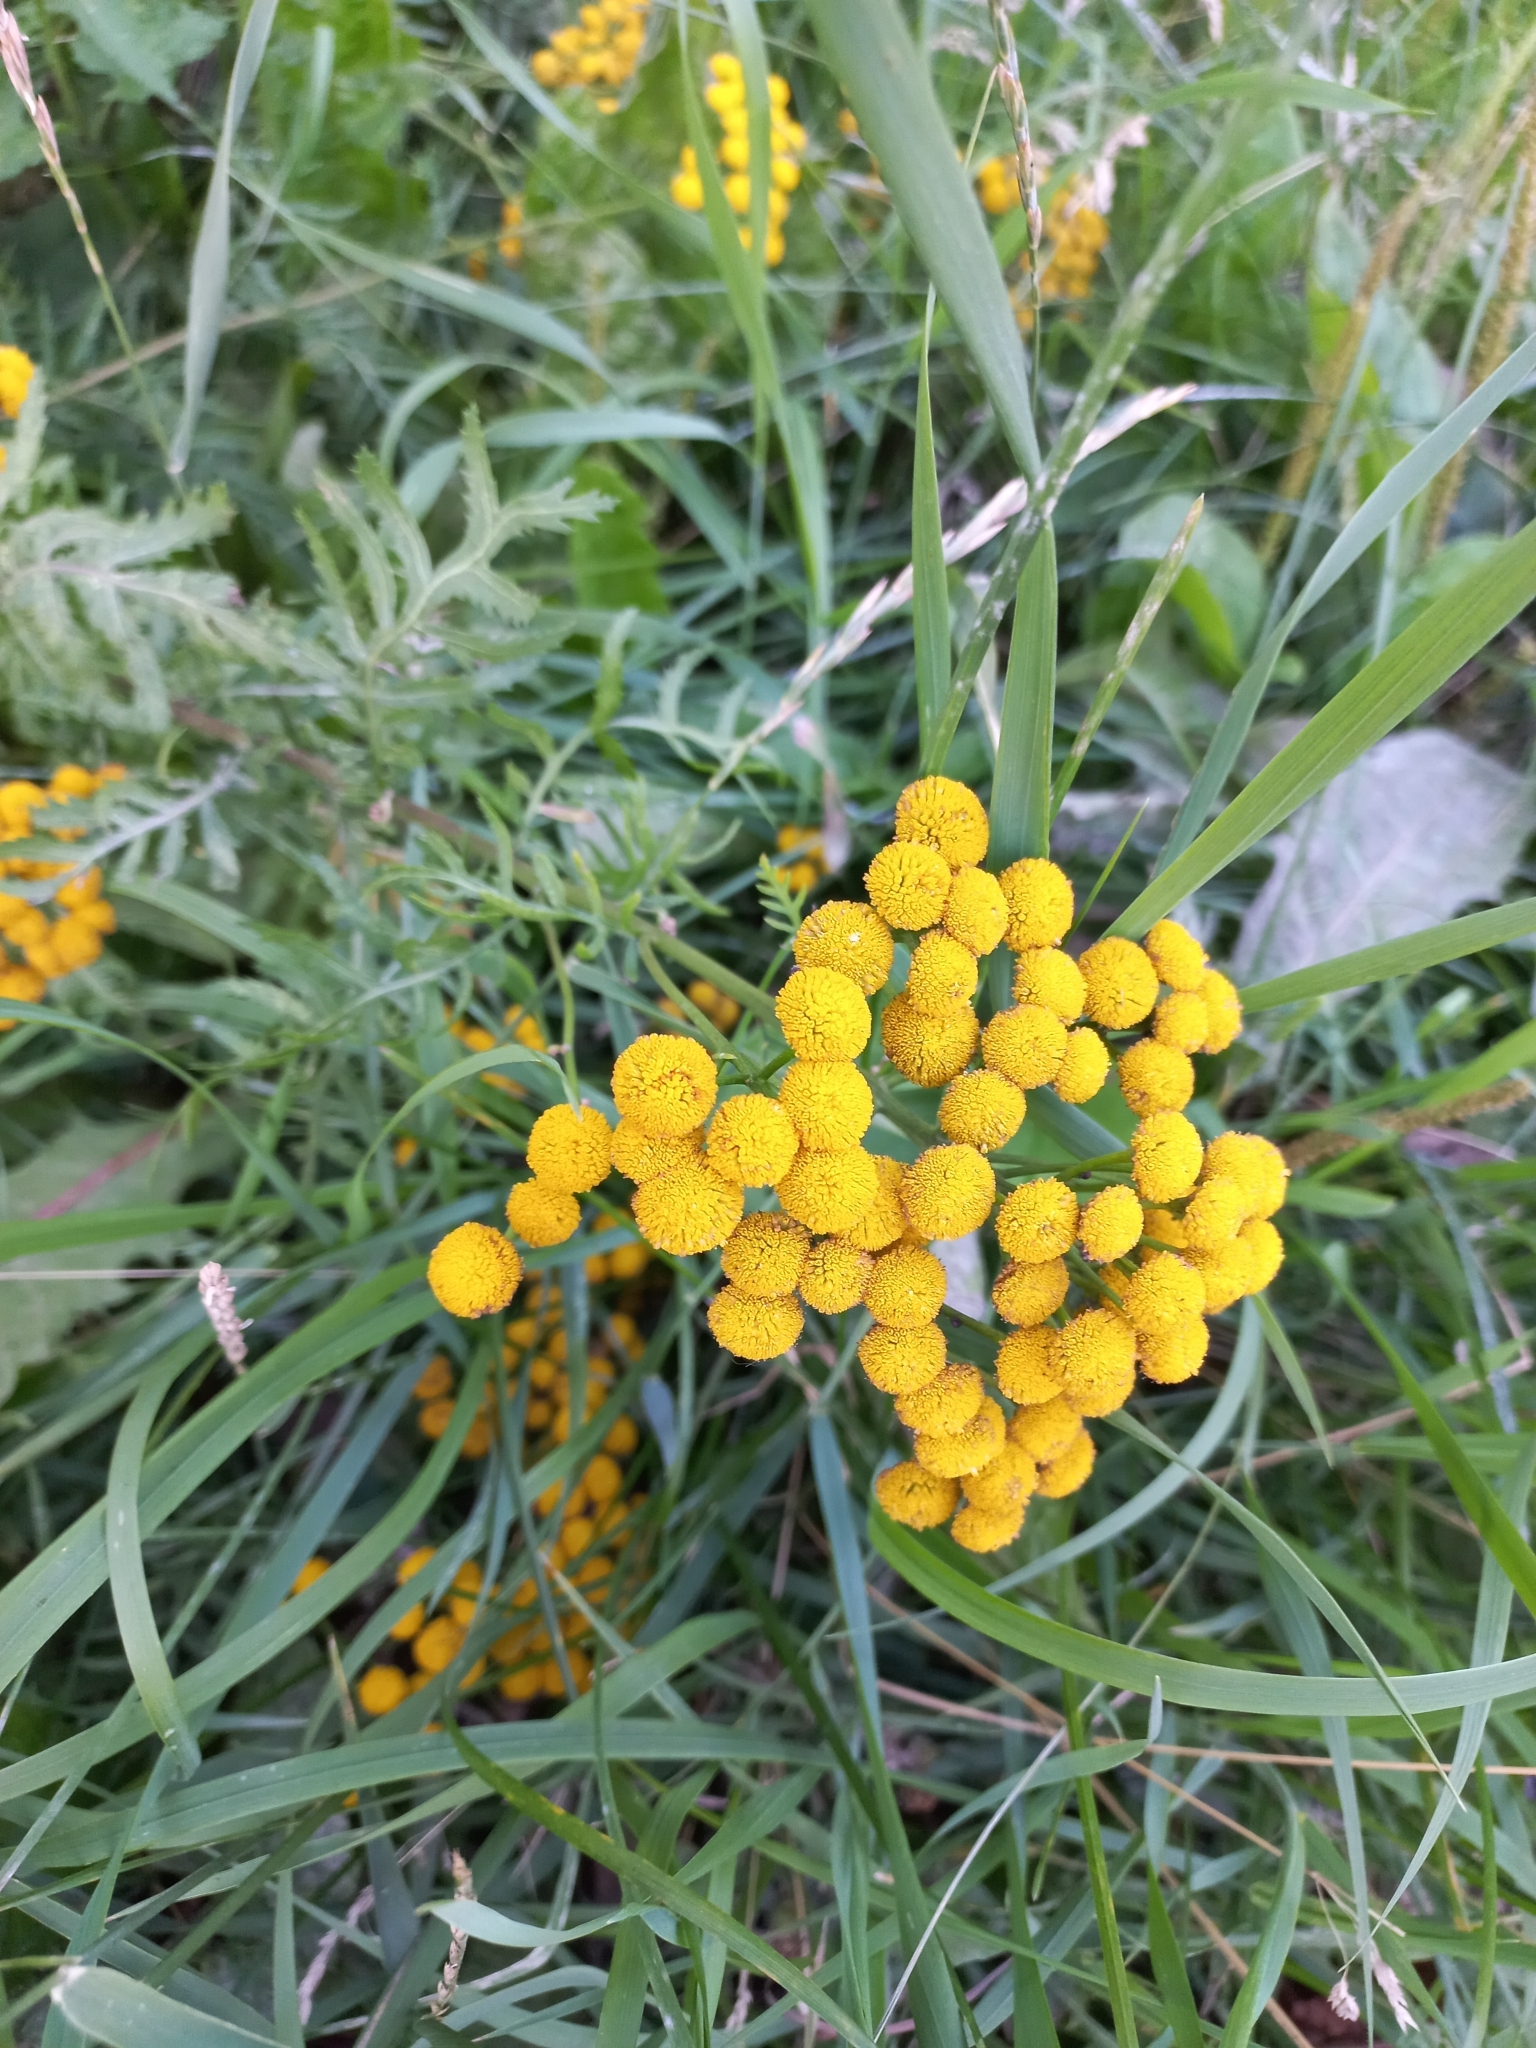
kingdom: Plantae
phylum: Tracheophyta
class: Magnoliopsida
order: Asterales
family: Asteraceae
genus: Tanacetum
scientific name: Tanacetum vulgare
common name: Common tansy
